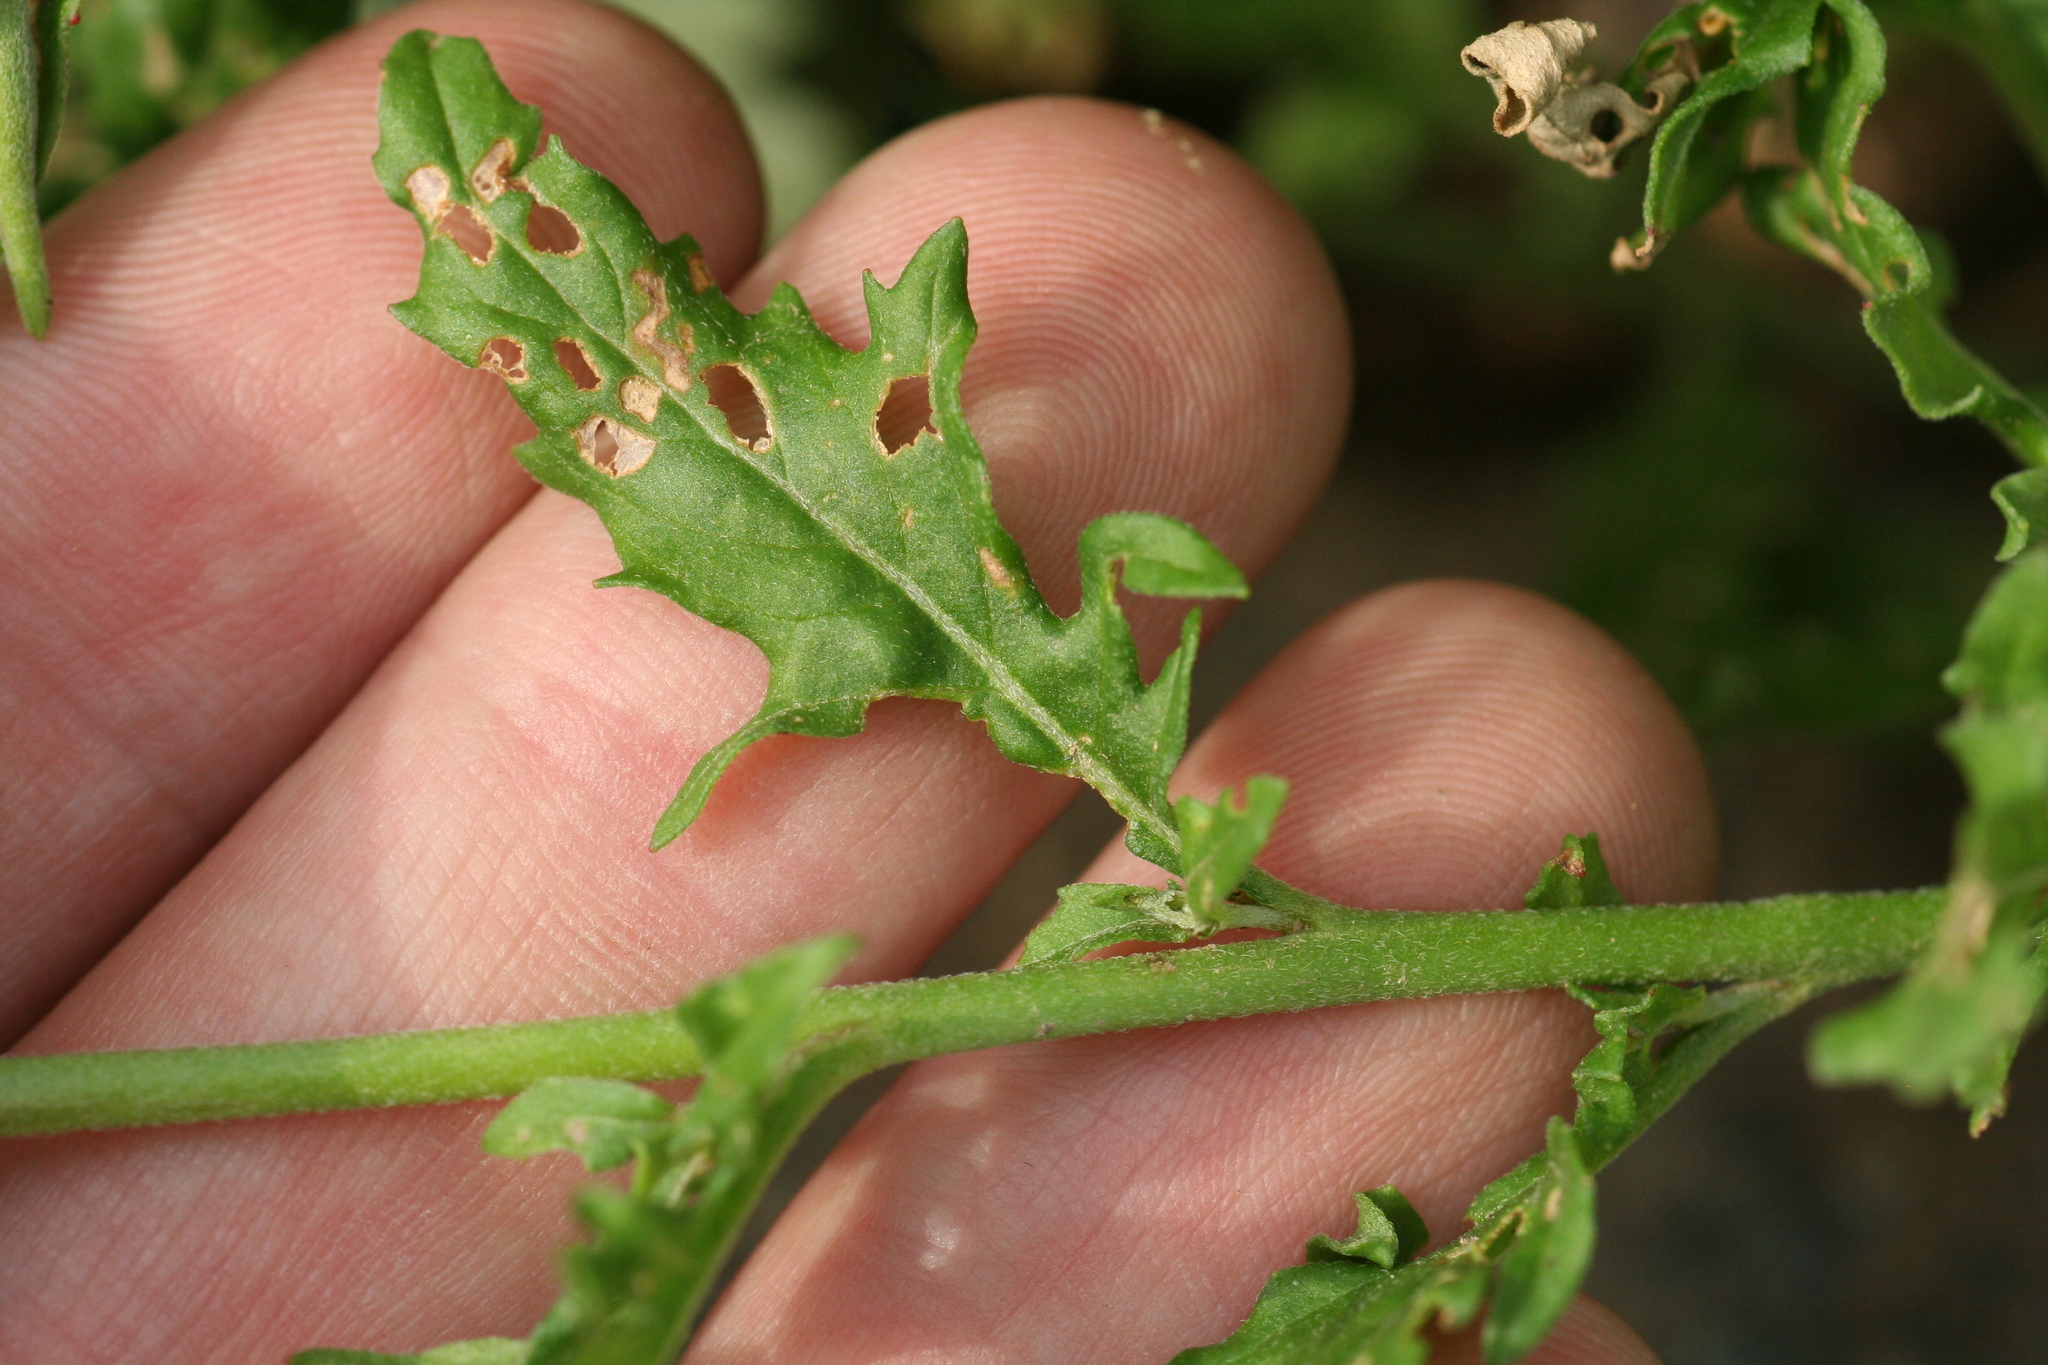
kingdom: Plantae
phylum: Tracheophyta
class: Magnoliopsida
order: Myrtales
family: Onagraceae
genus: Oenothera
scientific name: Oenothera speciosa
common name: White evening-primrose
